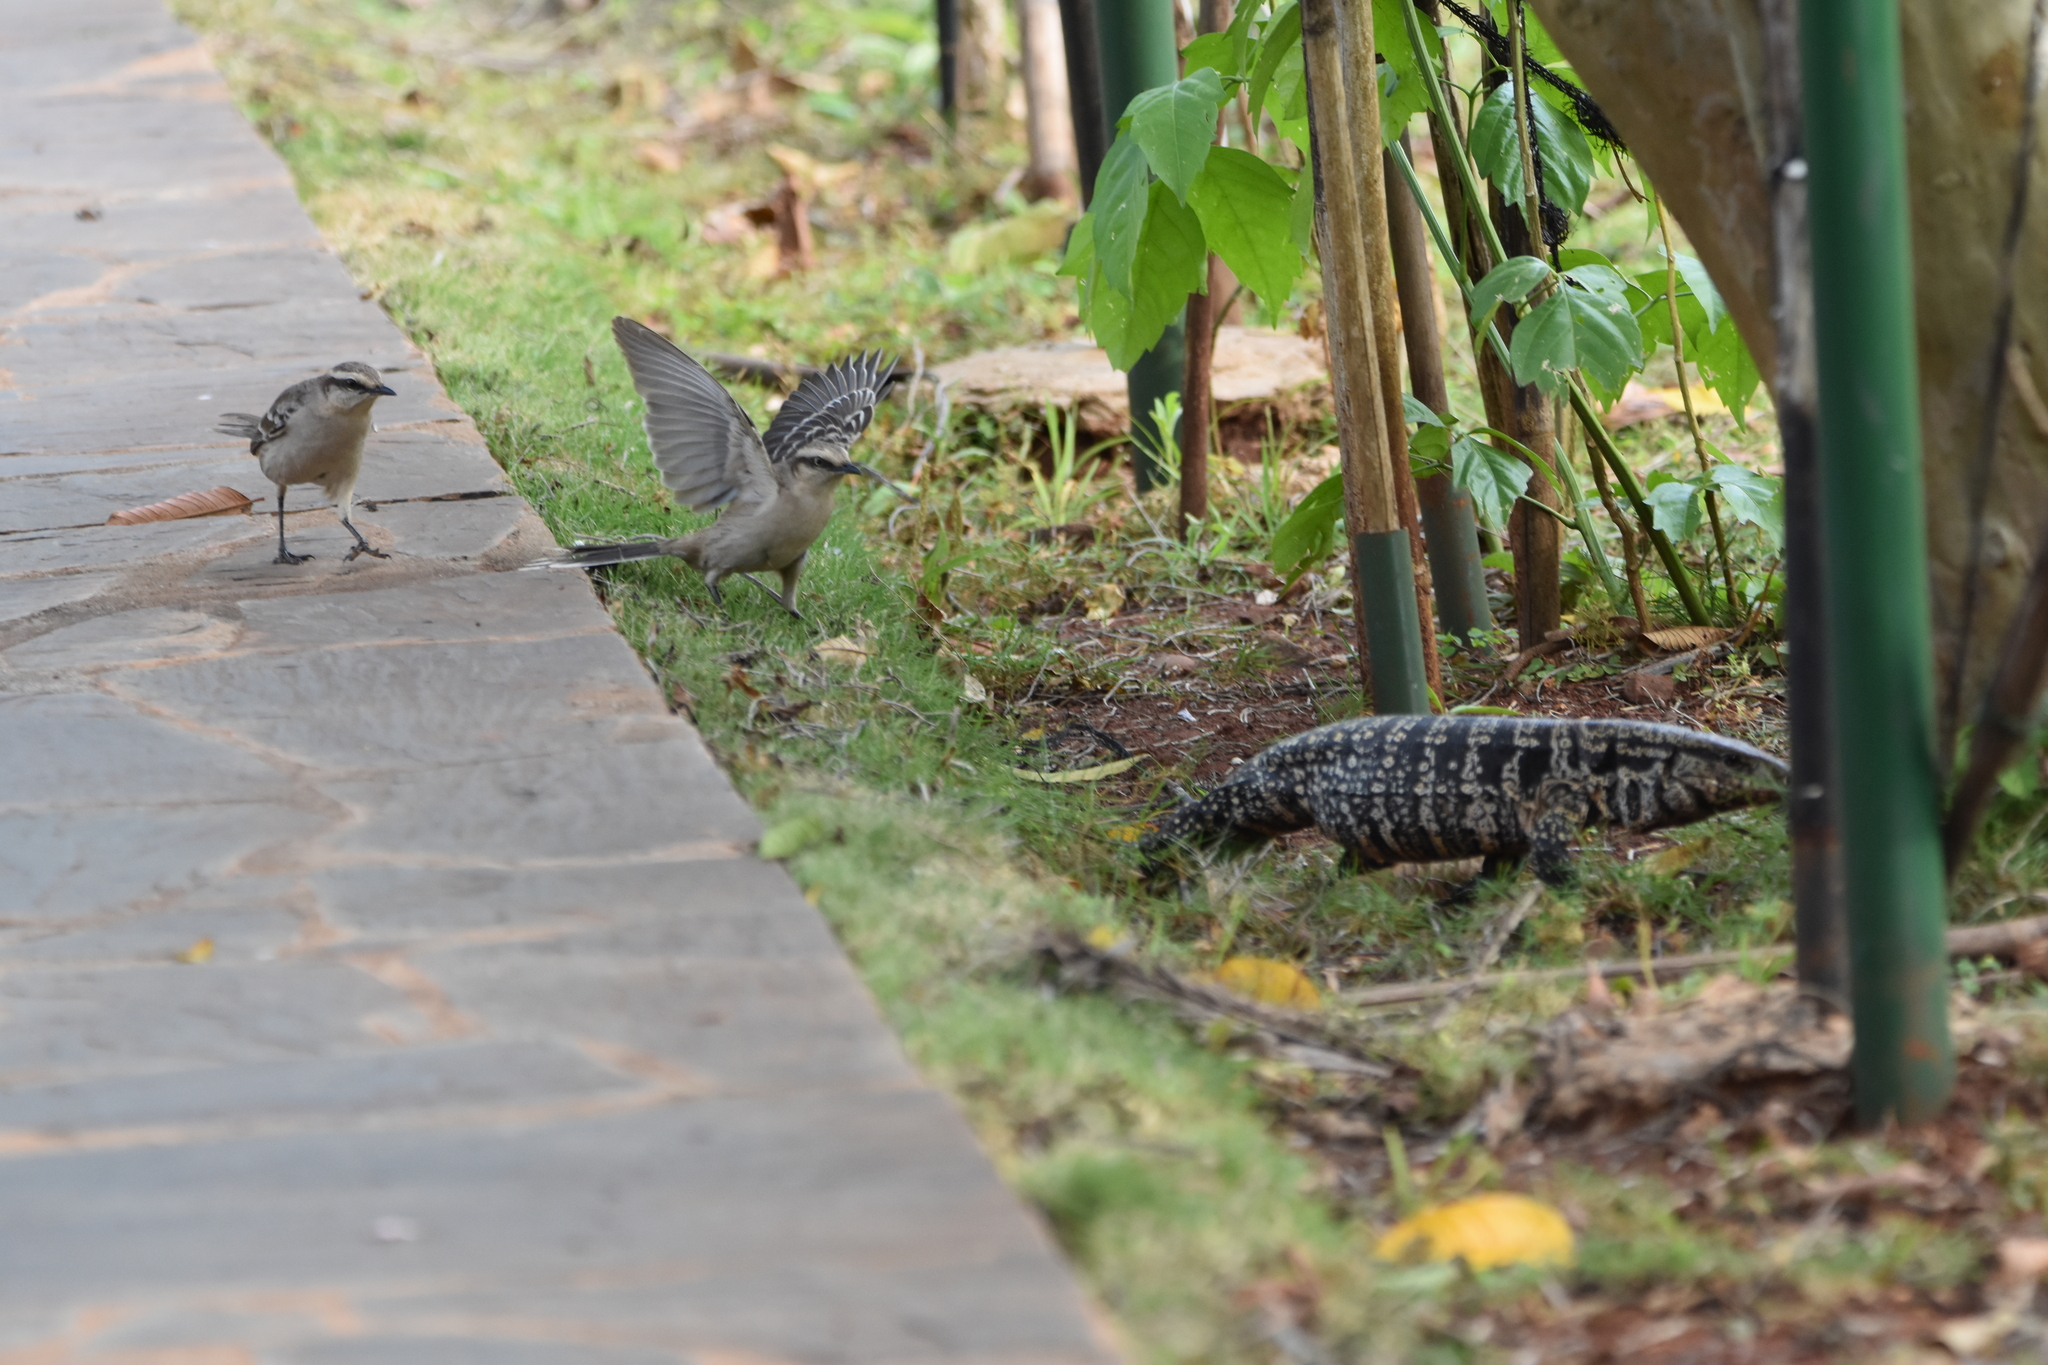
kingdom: Animalia
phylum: Chordata
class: Squamata
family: Teiidae
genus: Salvator
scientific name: Salvator merianae
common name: Argentine black and white tegu
